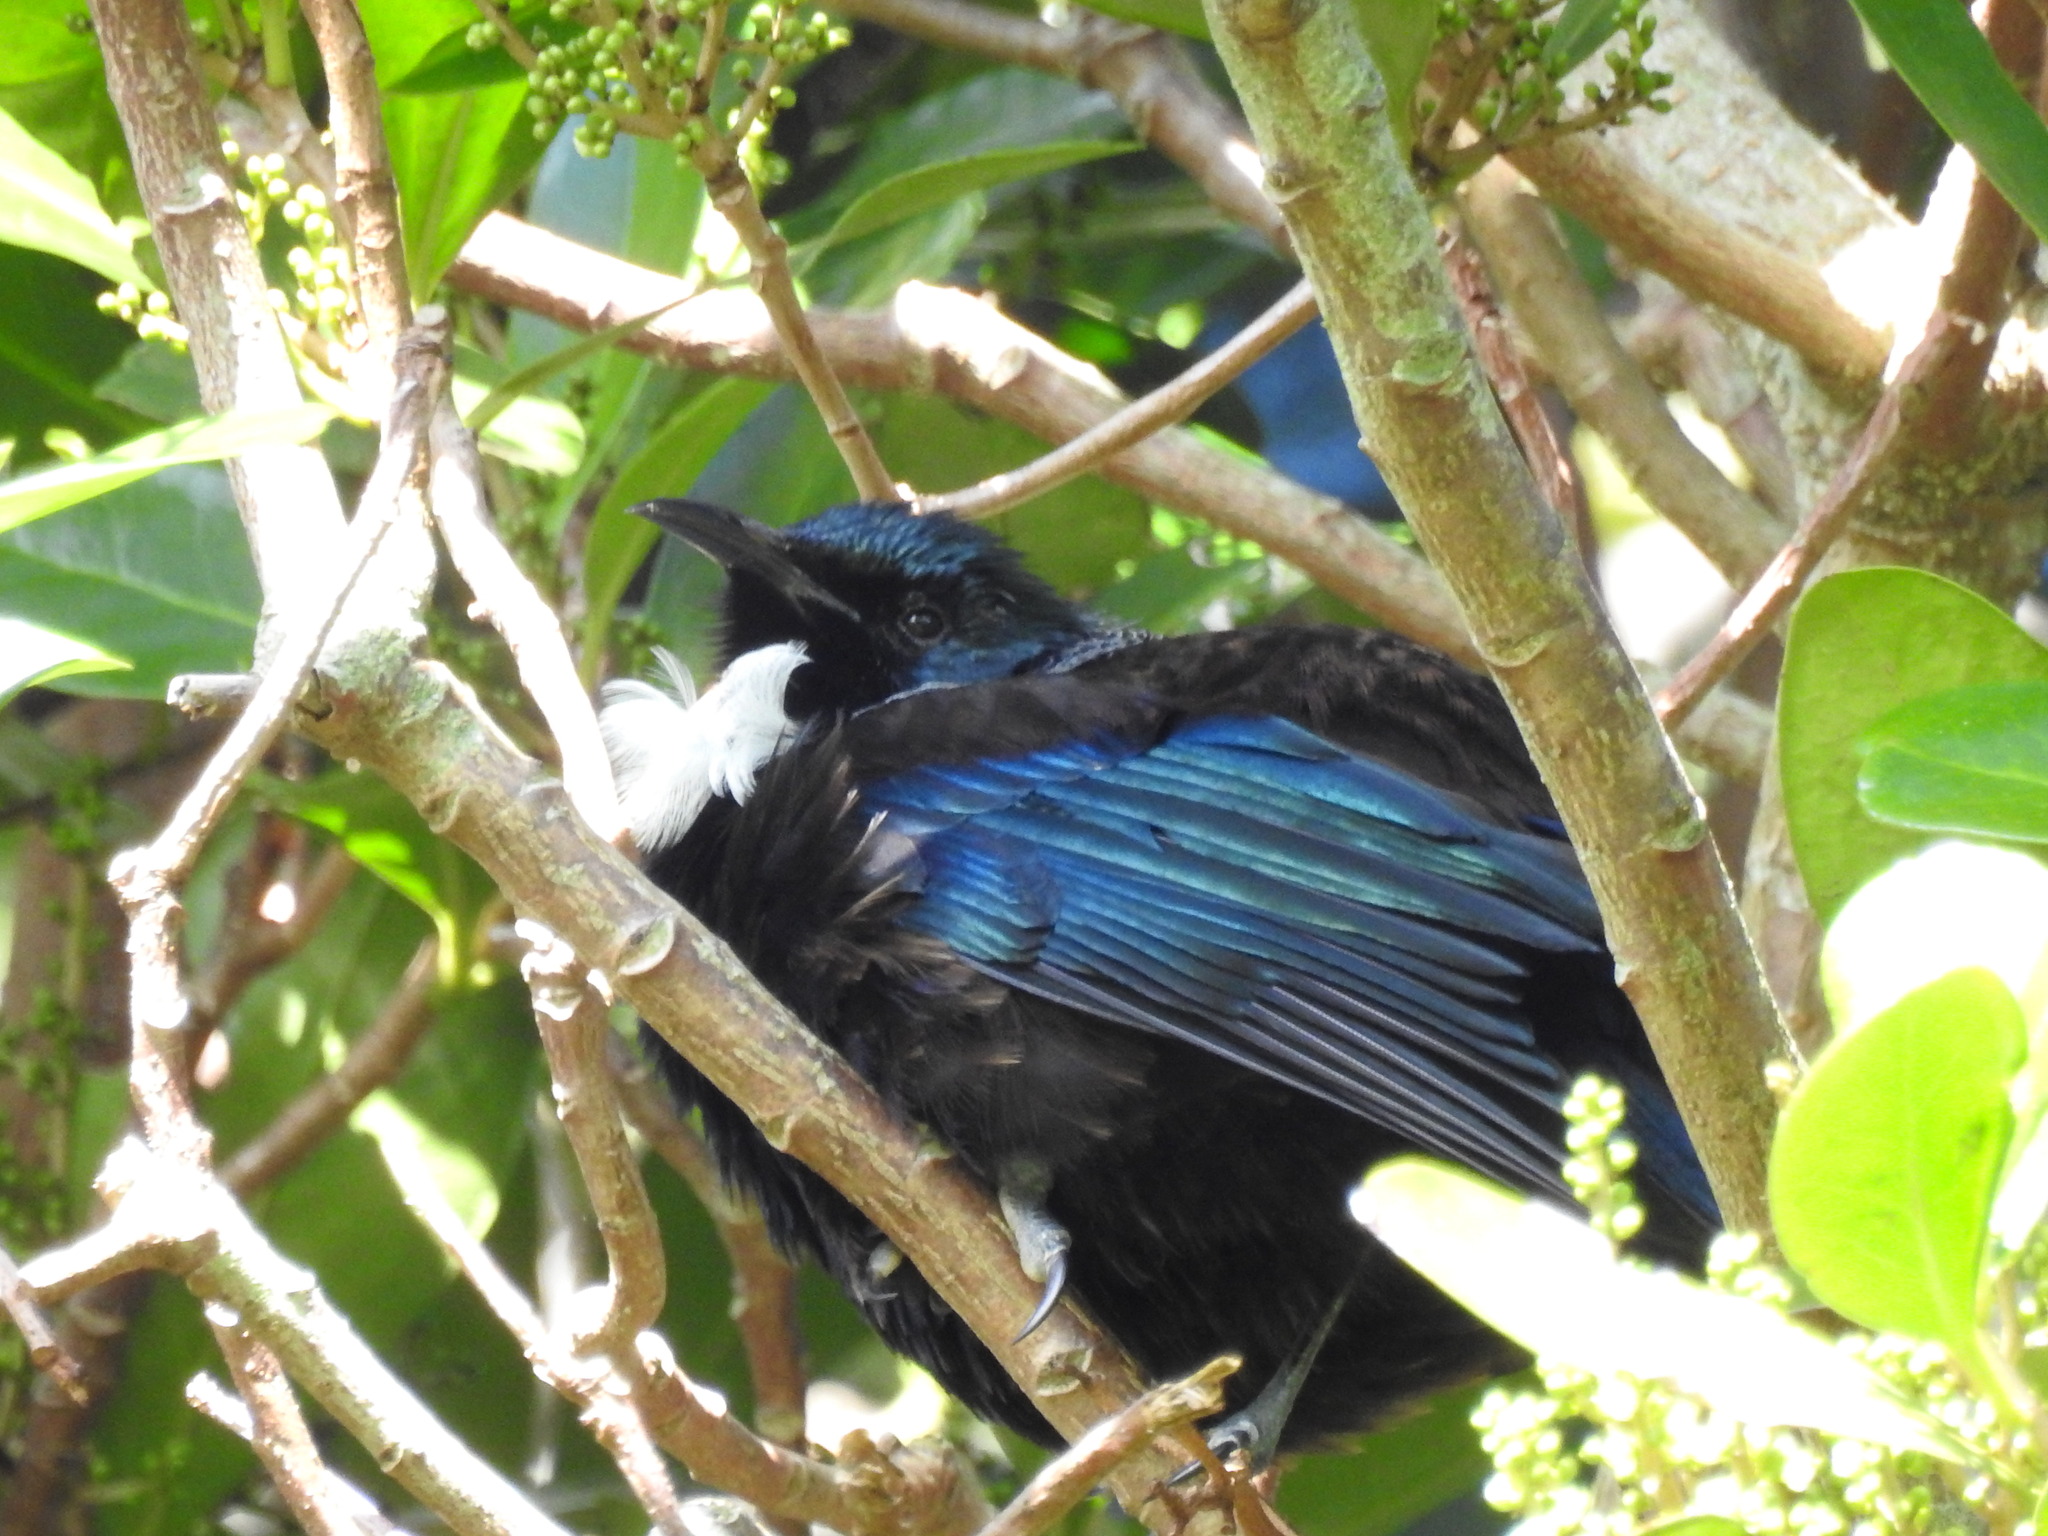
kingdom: Animalia
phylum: Chordata
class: Aves
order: Passeriformes
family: Meliphagidae
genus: Prosthemadera
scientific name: Prosthemadera novaeseelandiae
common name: Tui
